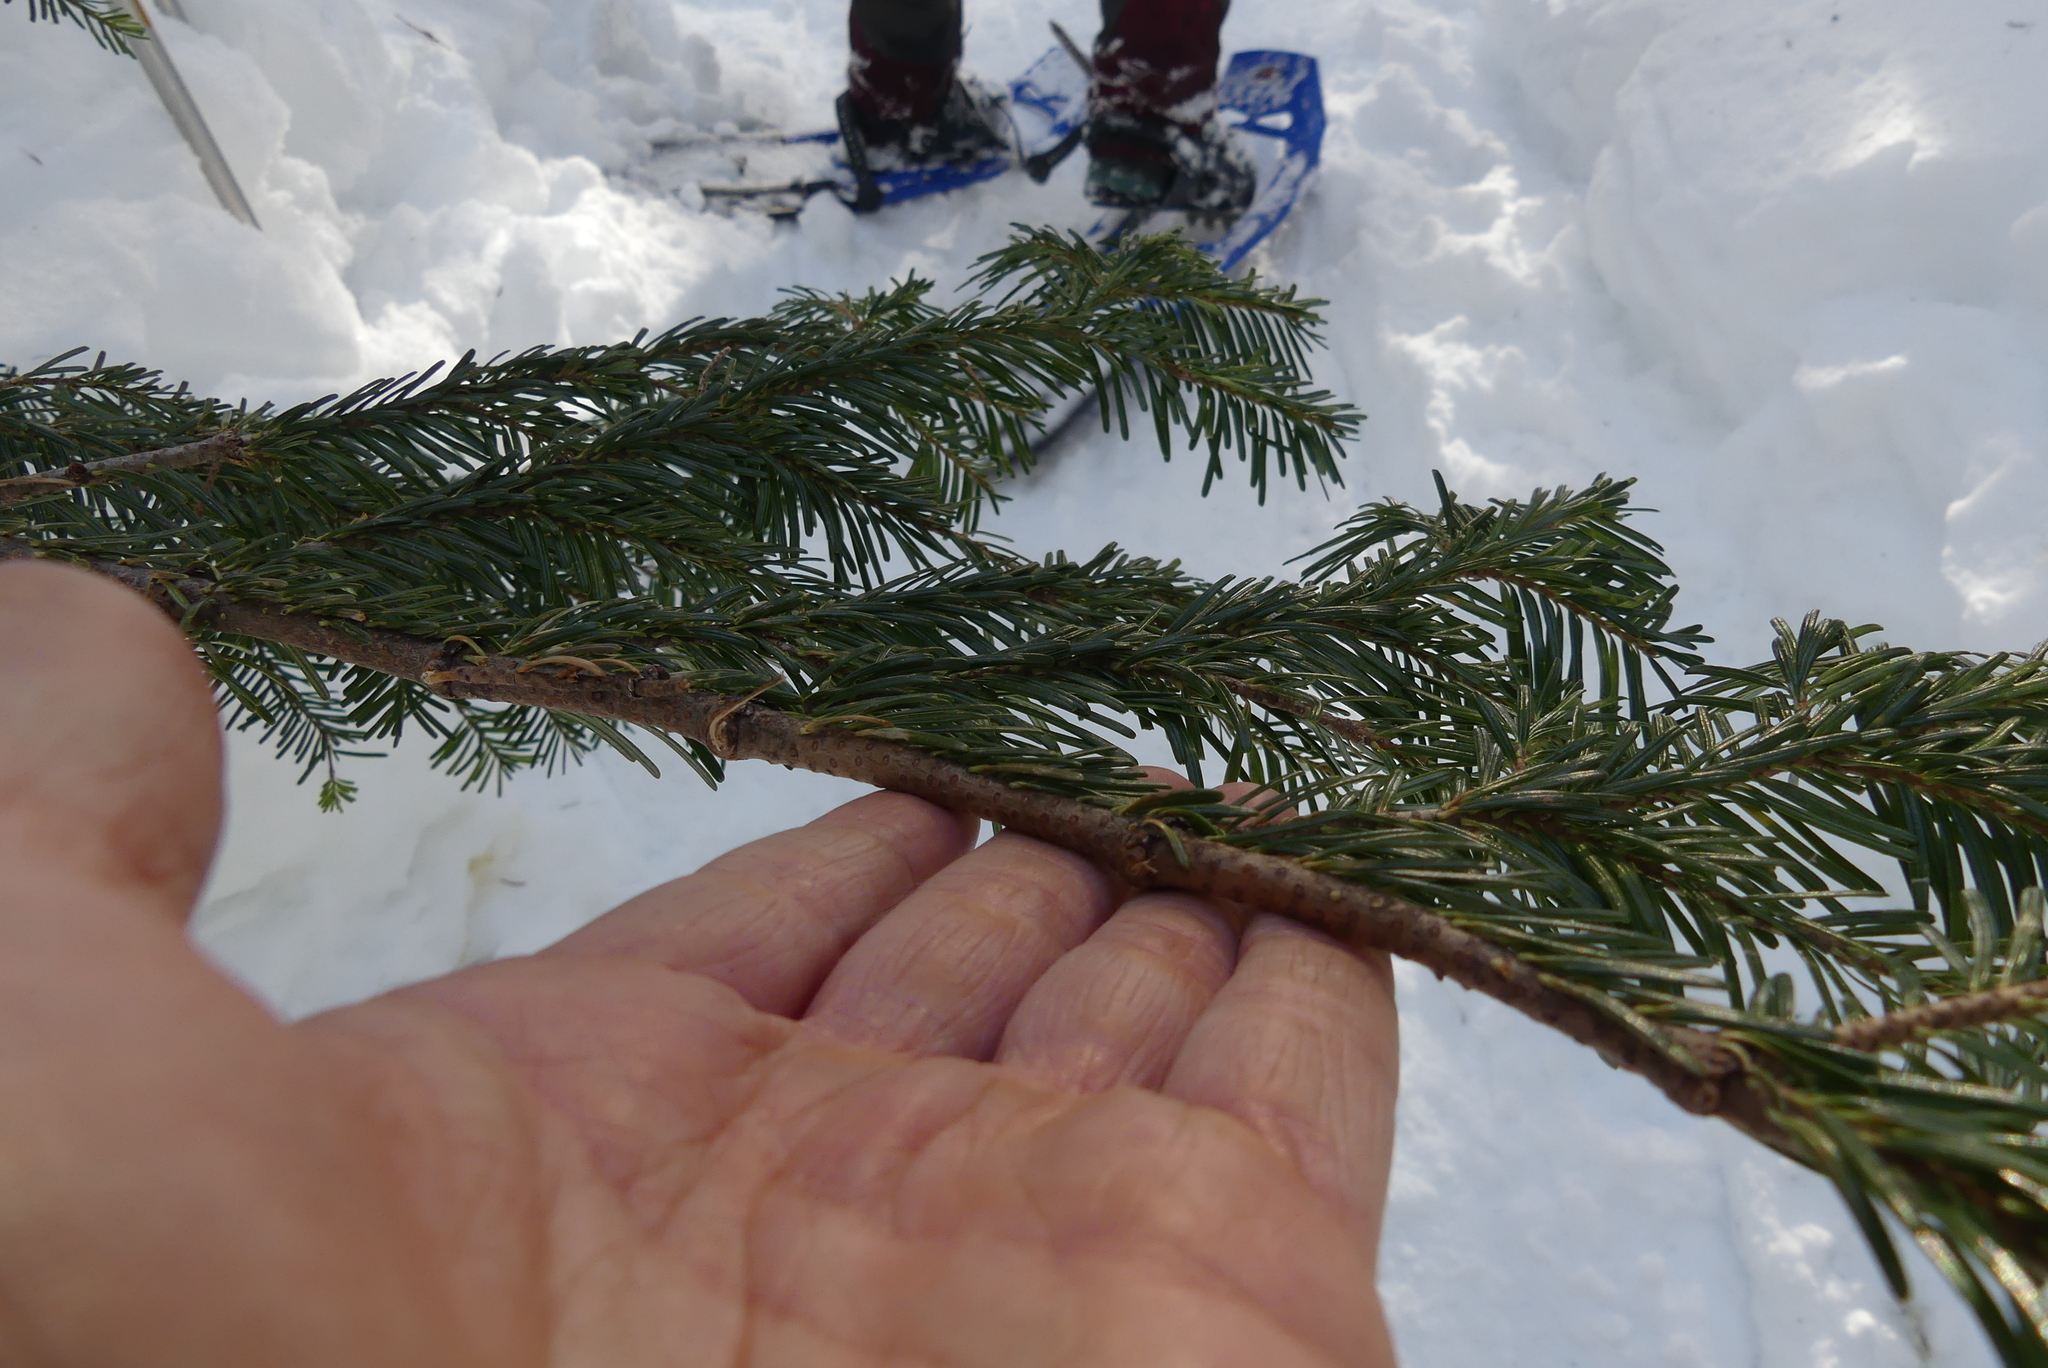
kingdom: Plantae
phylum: Tracheophyta
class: Pinopsida
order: Pinales
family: Pinaceae
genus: Abies
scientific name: Abies amabilis
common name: Pacific silver fir
